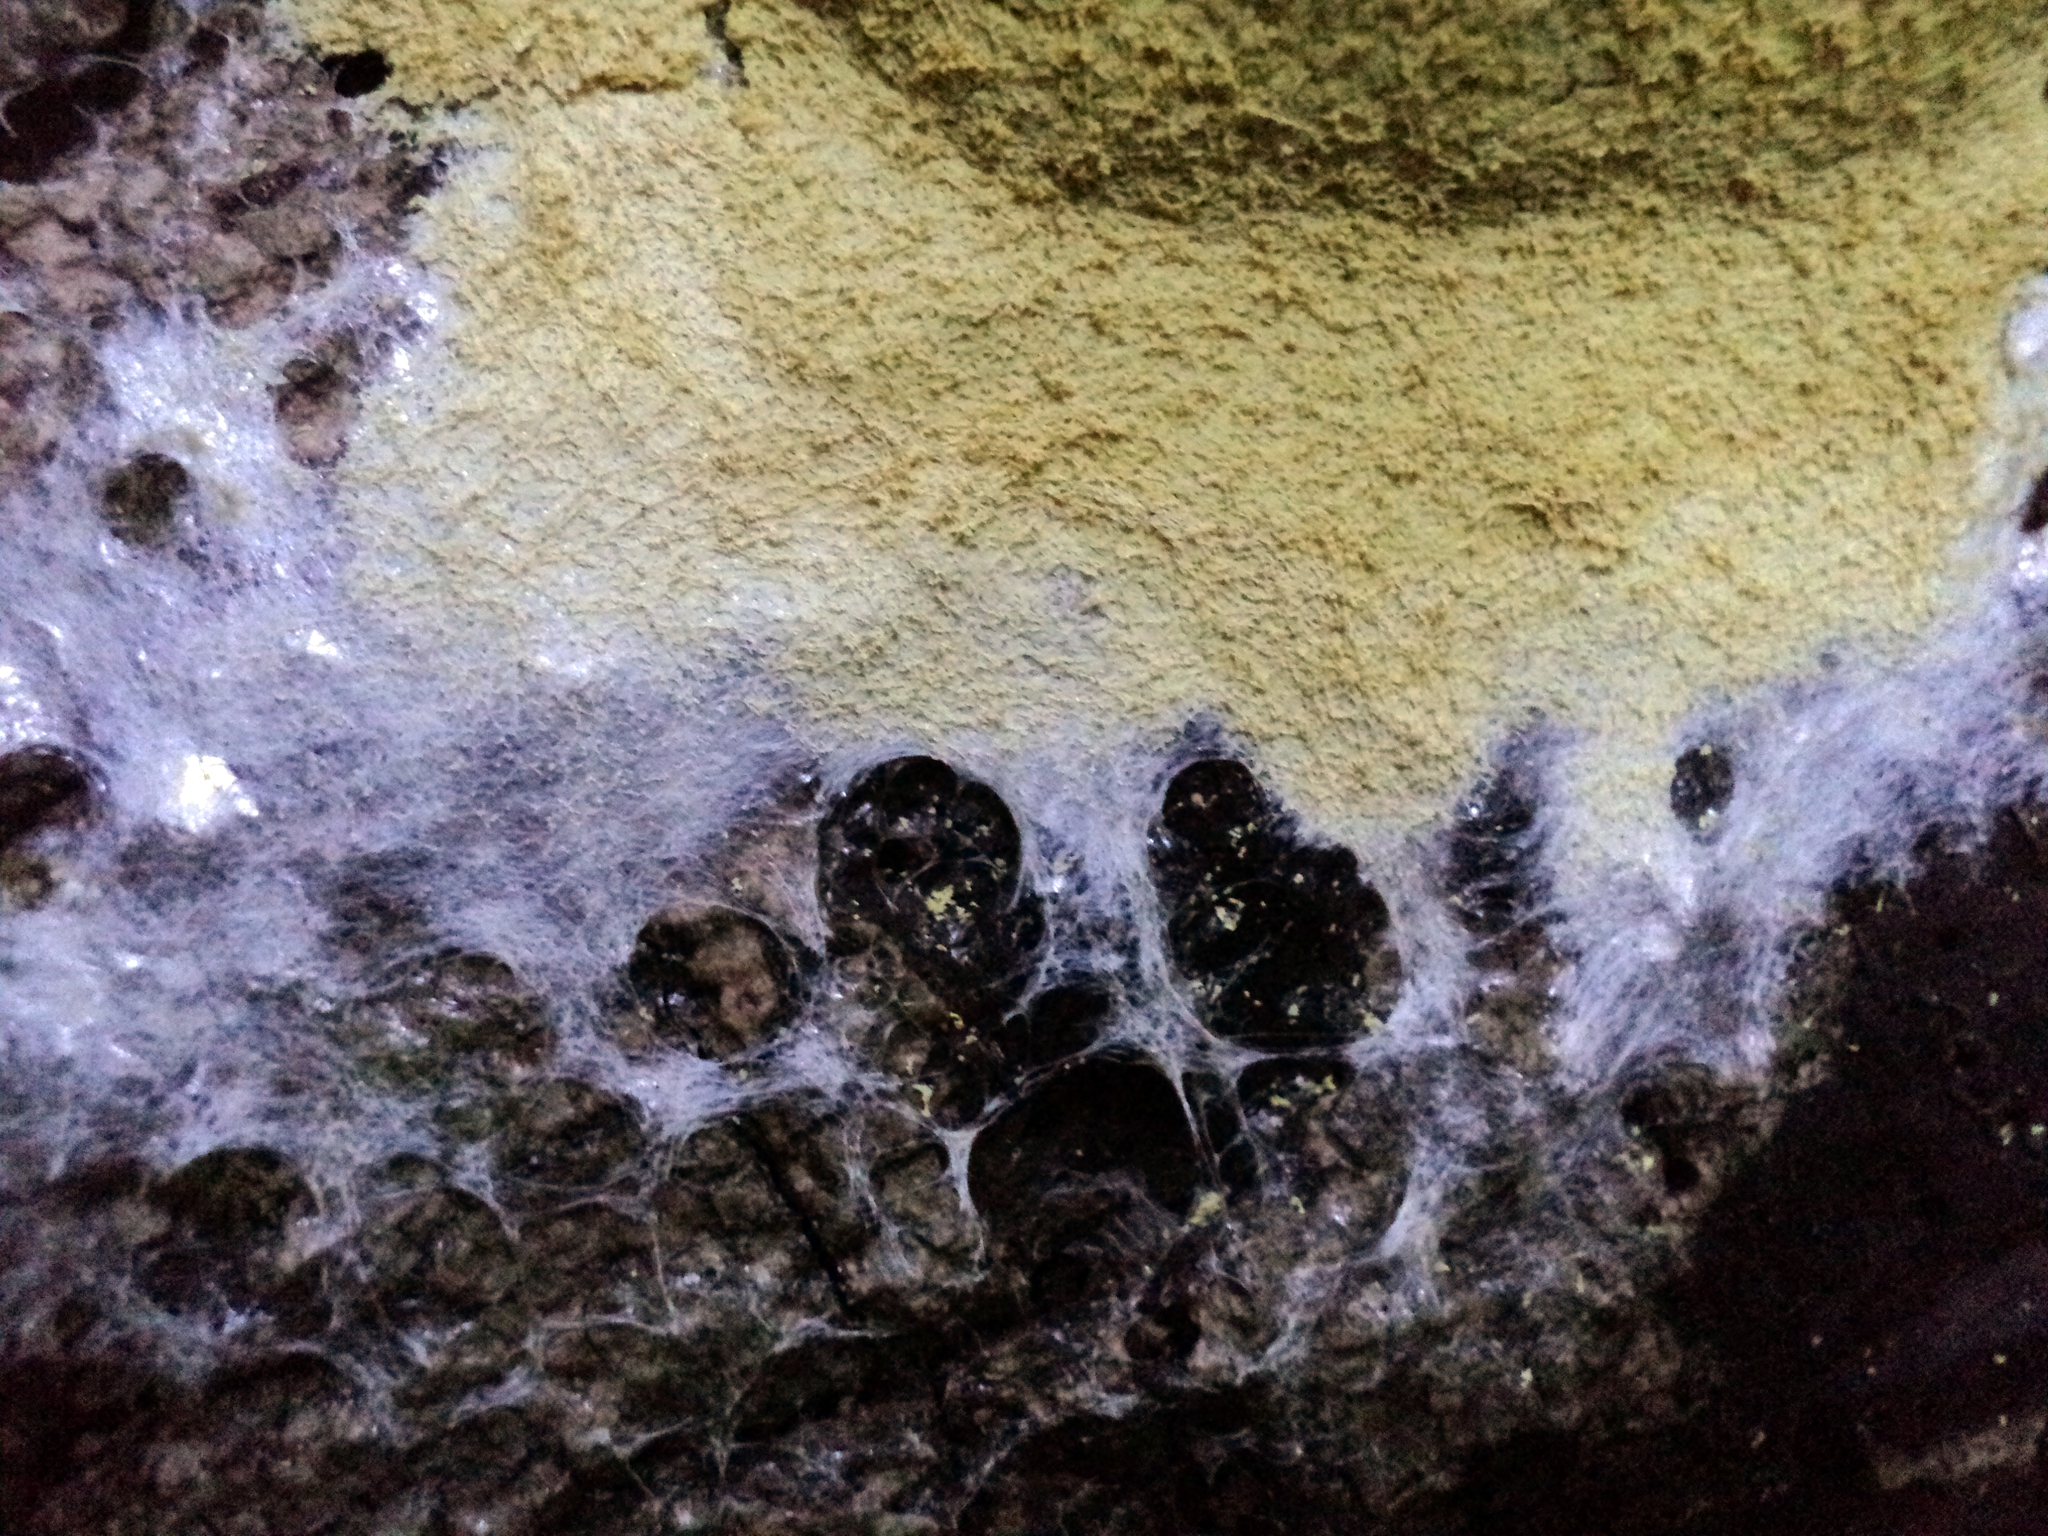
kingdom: Protozoa
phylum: Mycetozoa
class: Myxomycetes
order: Physarales
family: Physaraceae
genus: Fuligo
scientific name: Fuligo septica
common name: Dog vomit slime mold
